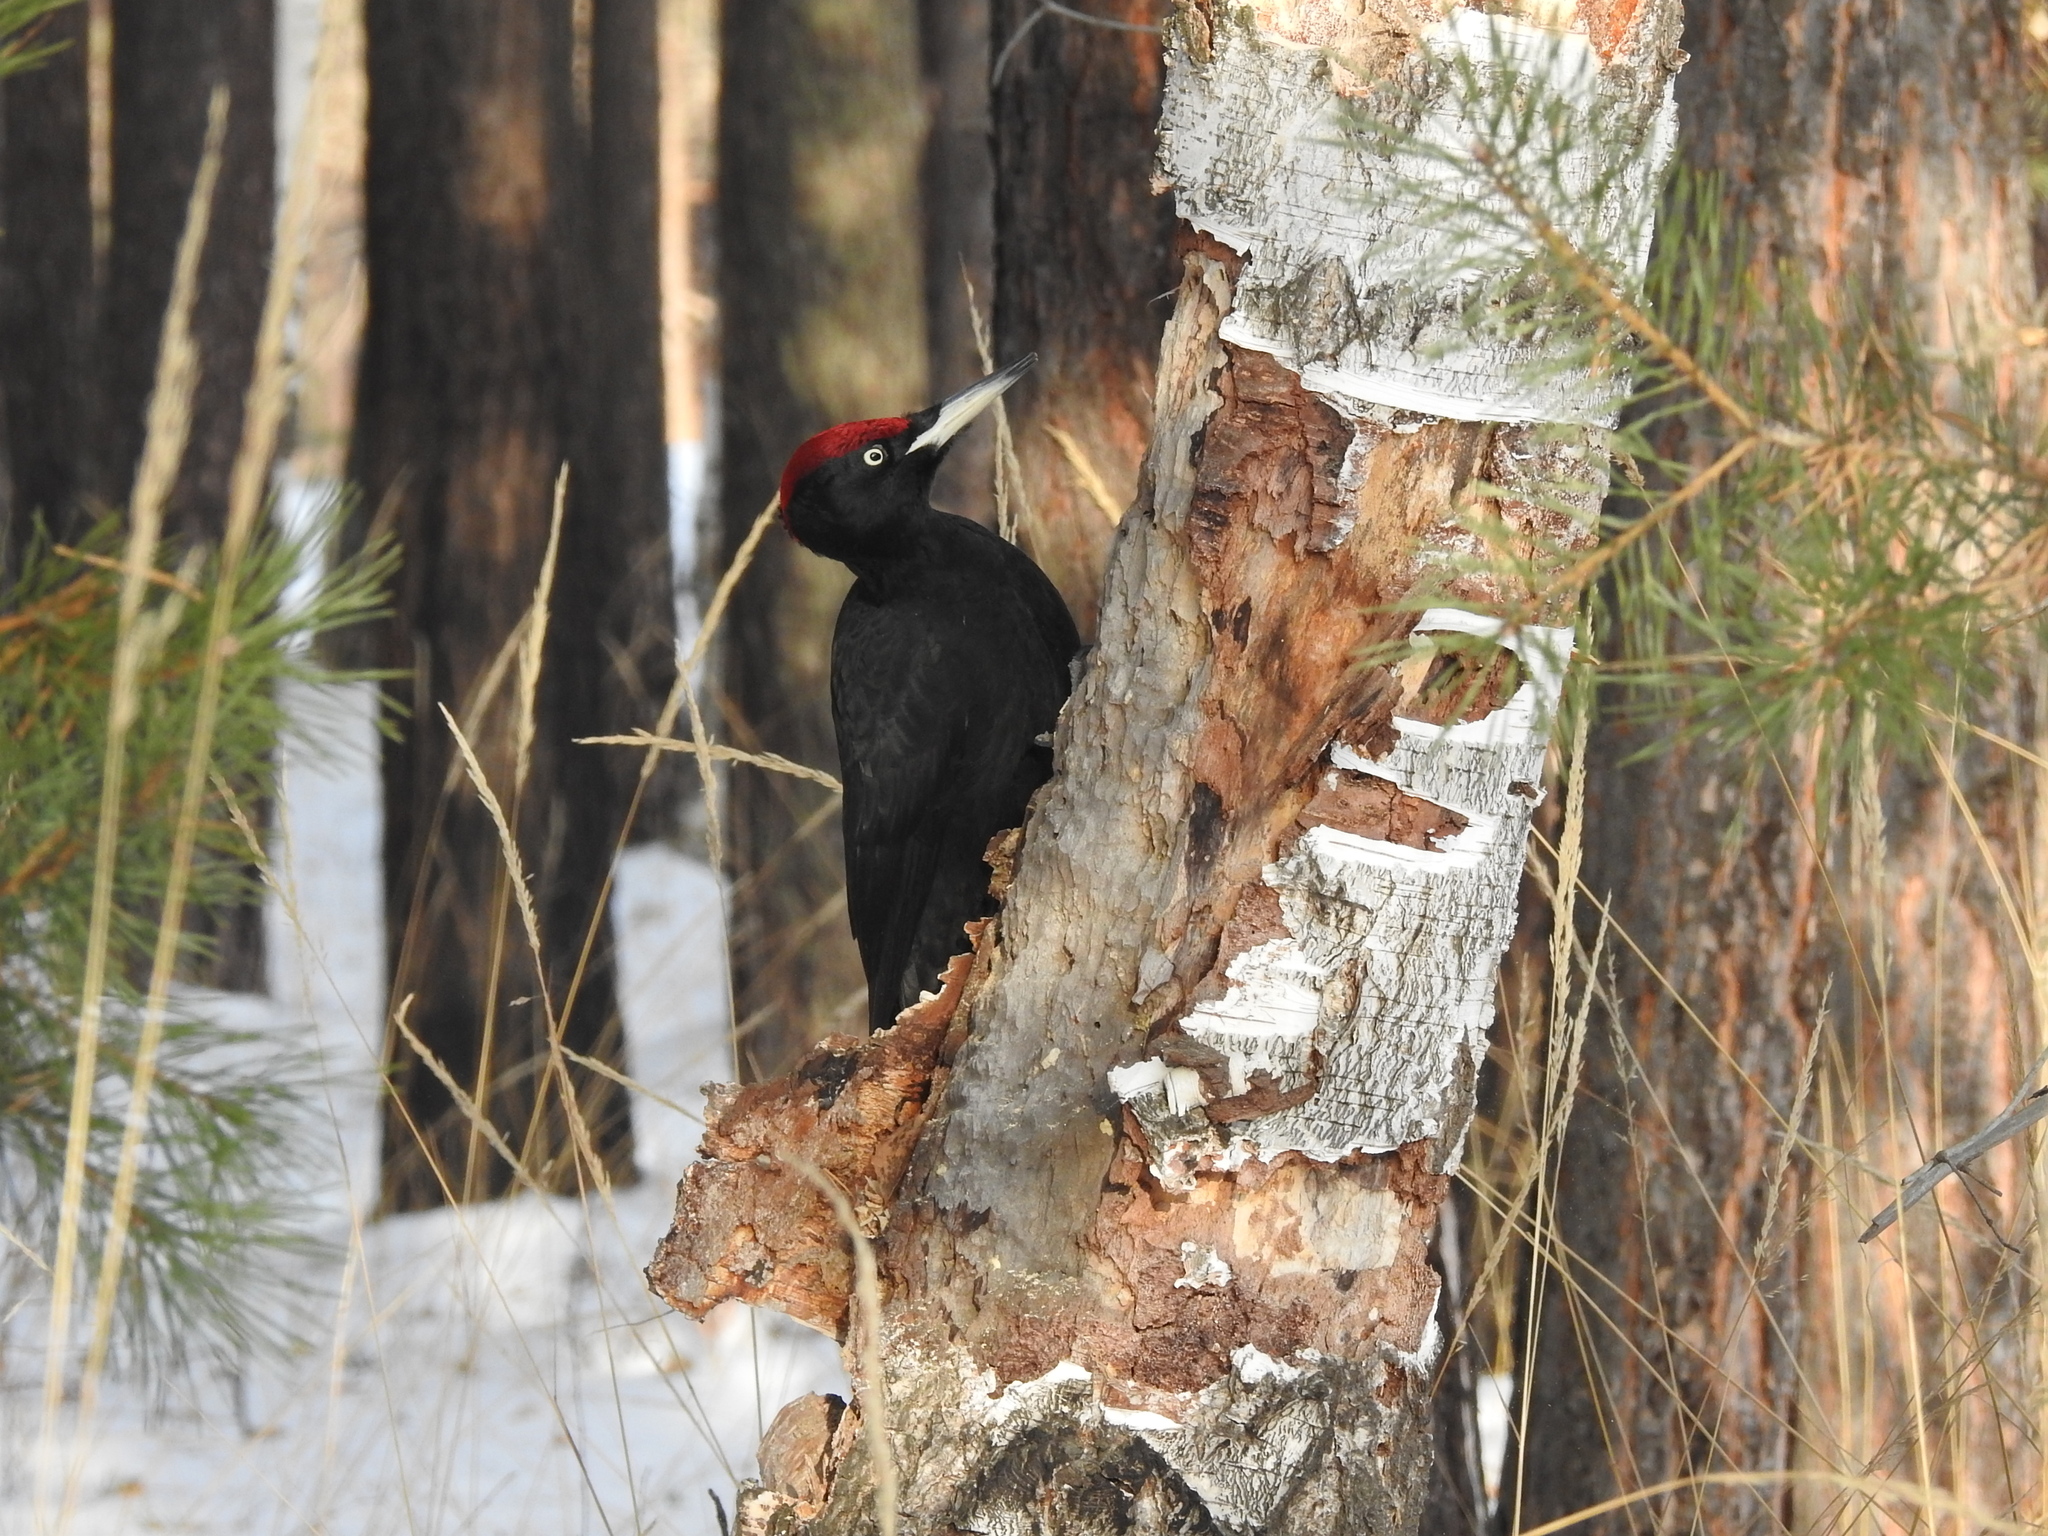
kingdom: Animalia
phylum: Chordata
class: Aves
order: Piciformes
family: Picidae
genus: Dryocopus
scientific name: Dryocopus martius
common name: Black woodpecker
